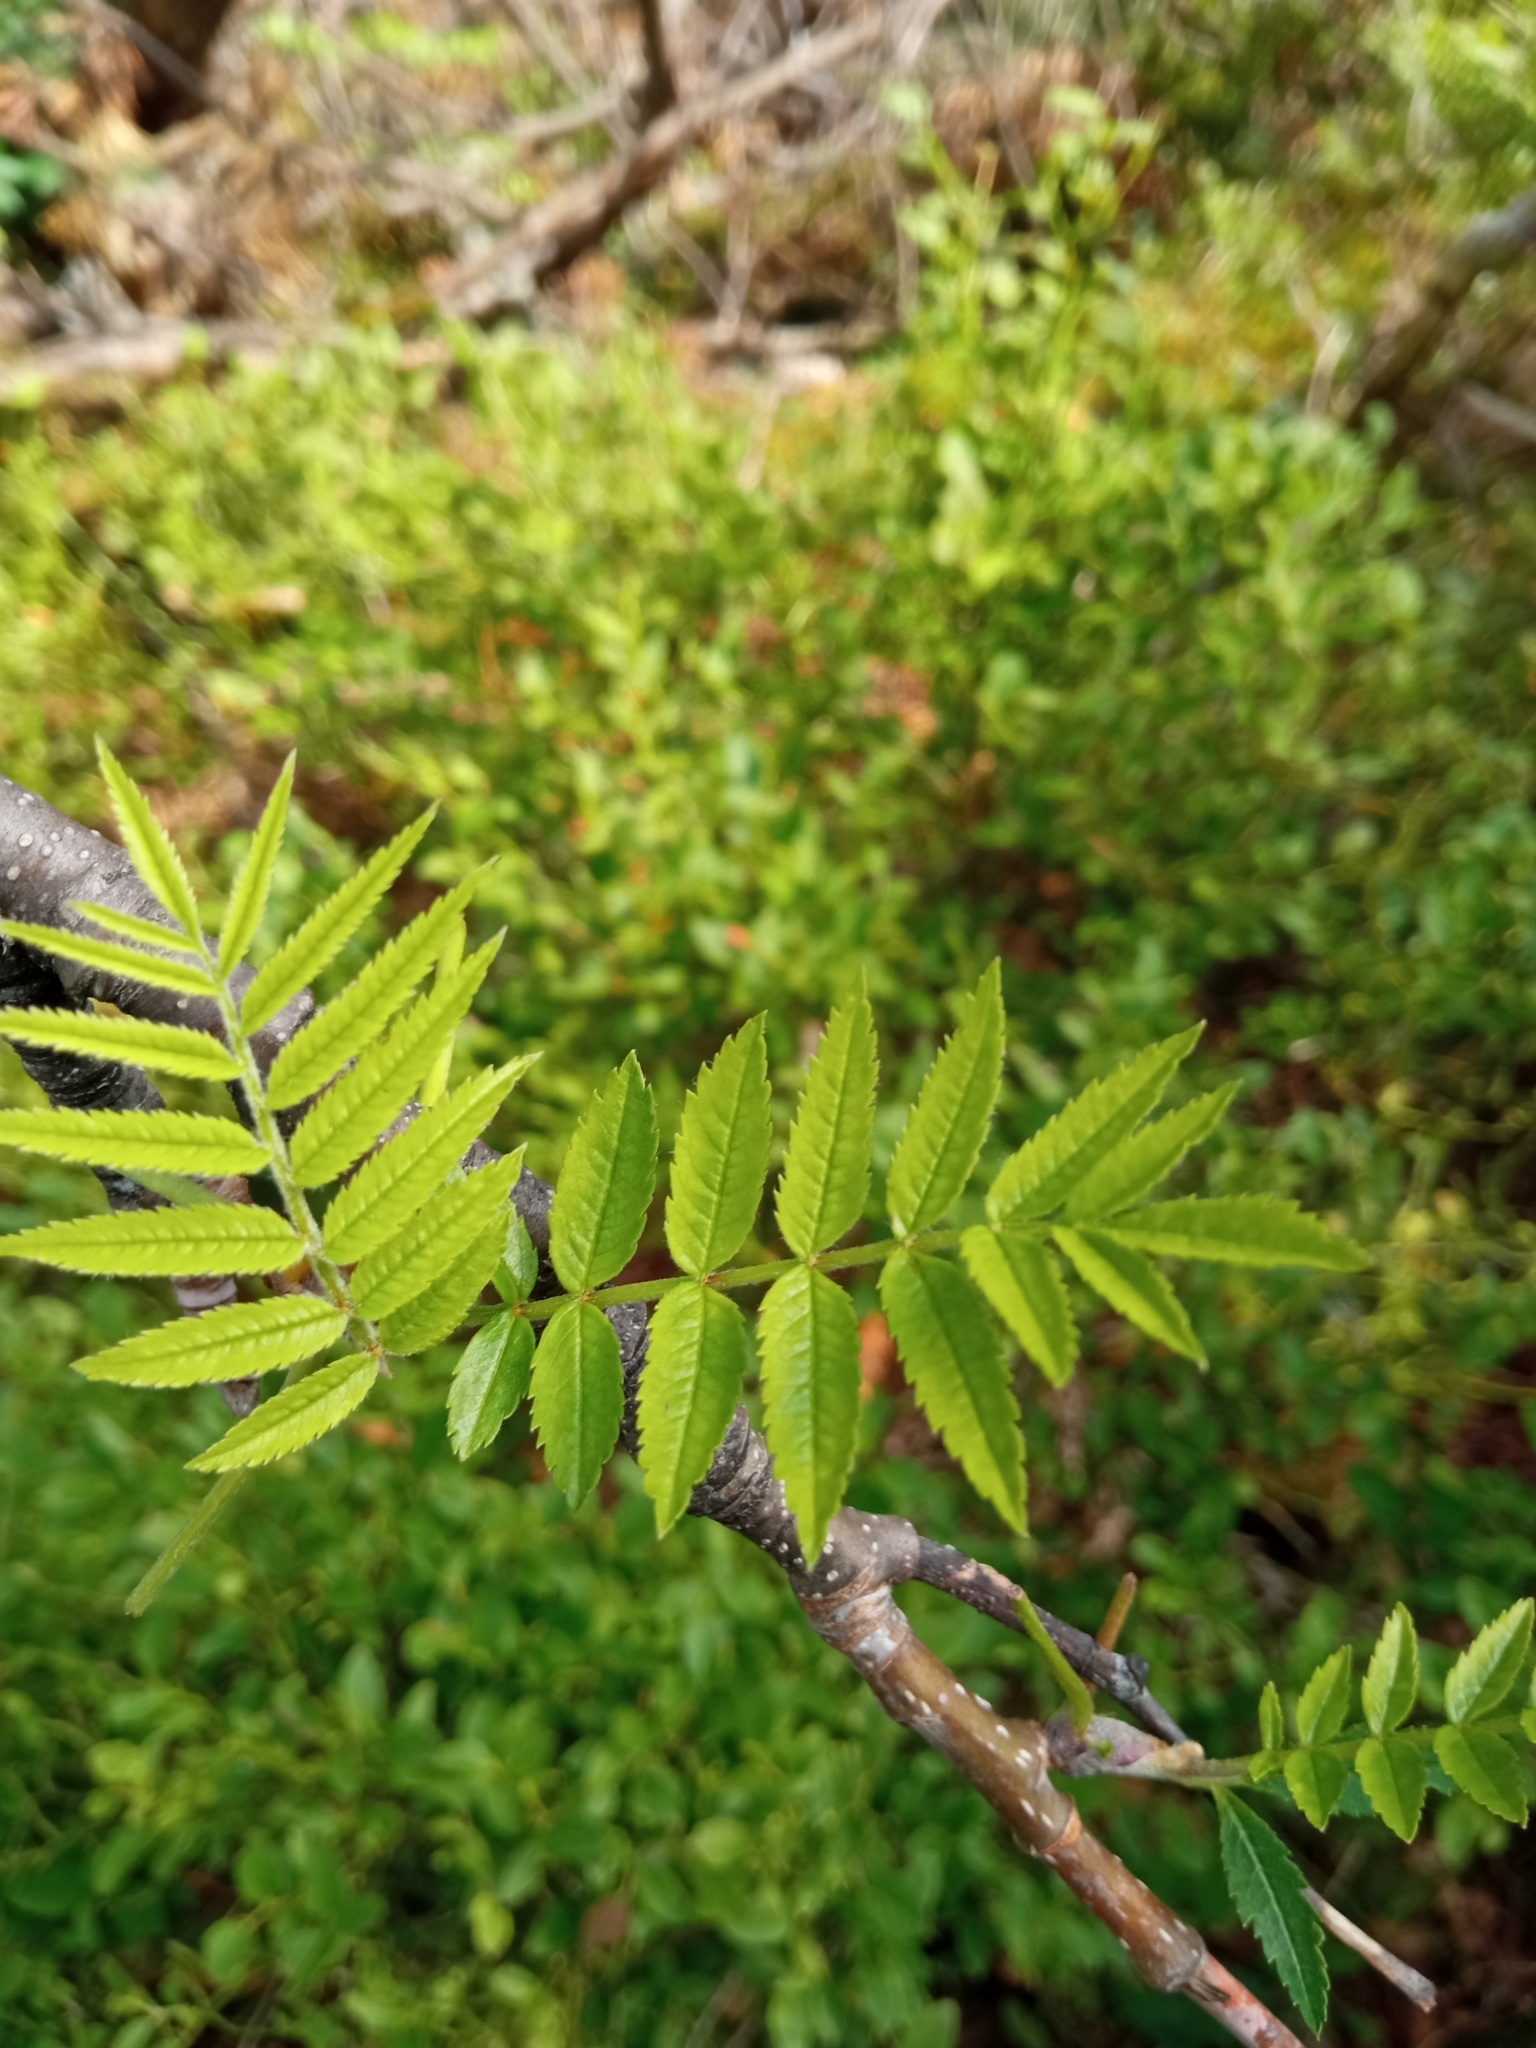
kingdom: Plantae
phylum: Tracheophyta
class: Magnoliopsida
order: Rosales
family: Rosaceae
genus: Sorbus
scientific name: Sorbus aucuparia
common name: Rowan
